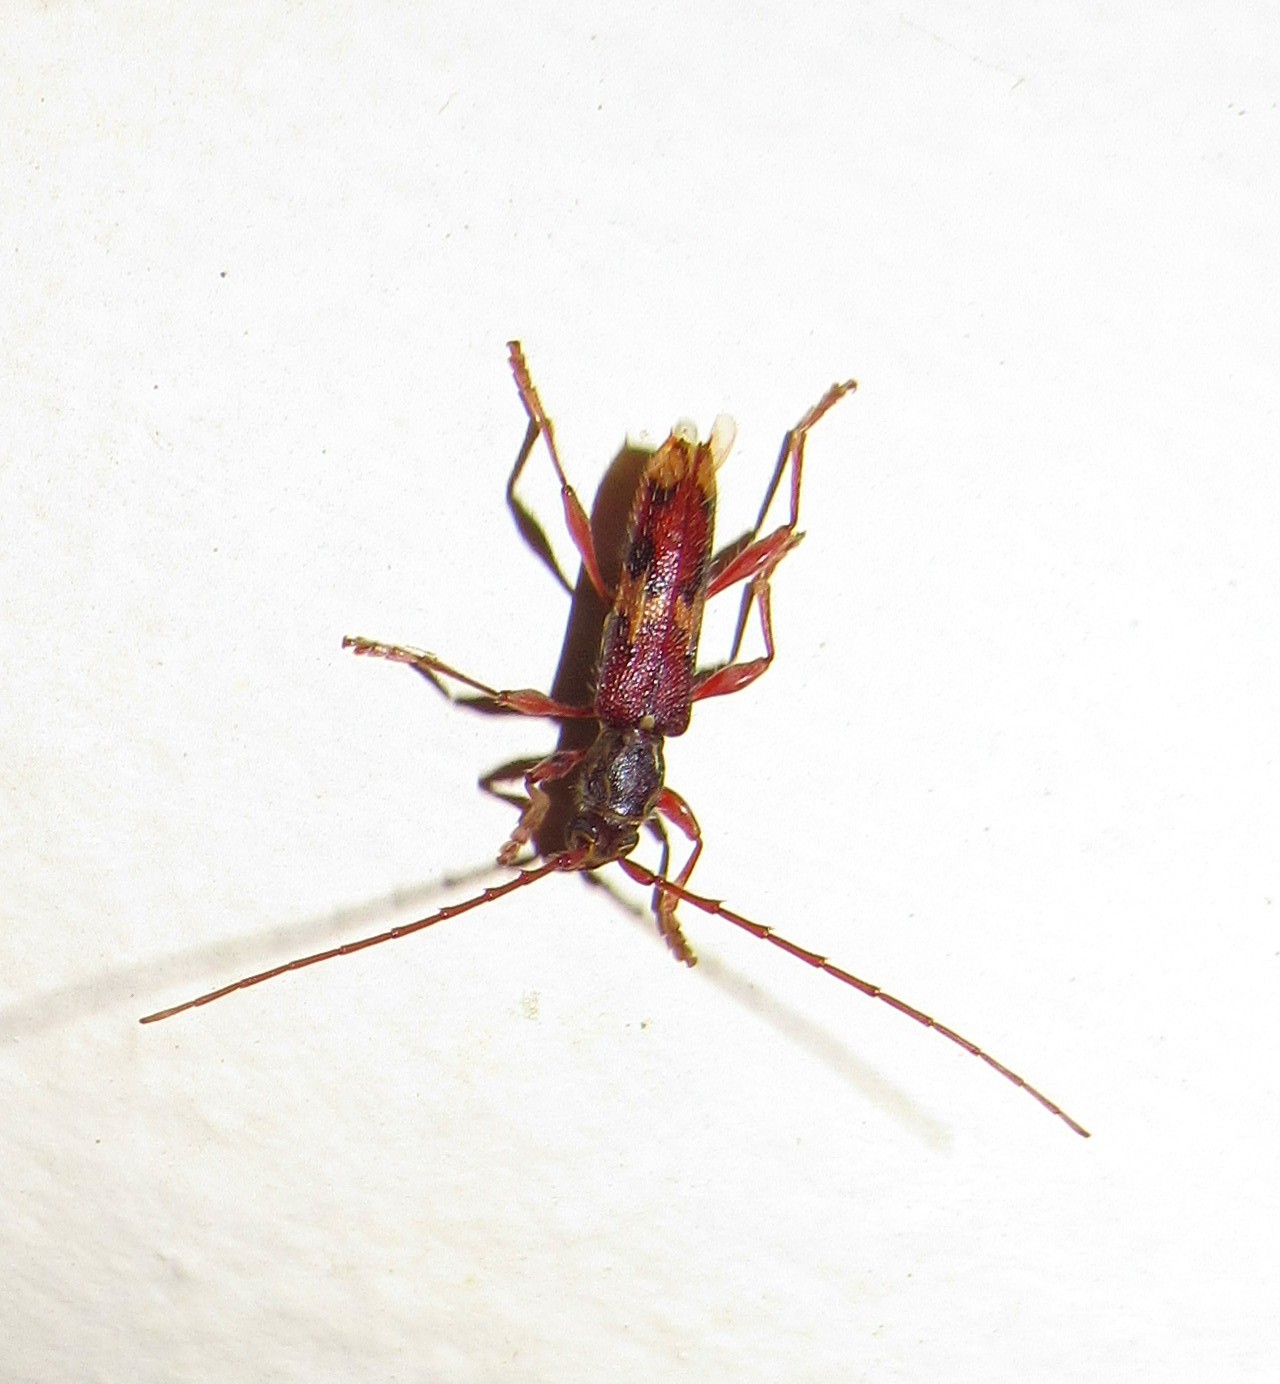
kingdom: Animalia
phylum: Arthropoda
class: Insecta
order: Coleoptera
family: Cerambycidae
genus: Eurysthea
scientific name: Eurysthea hirta
